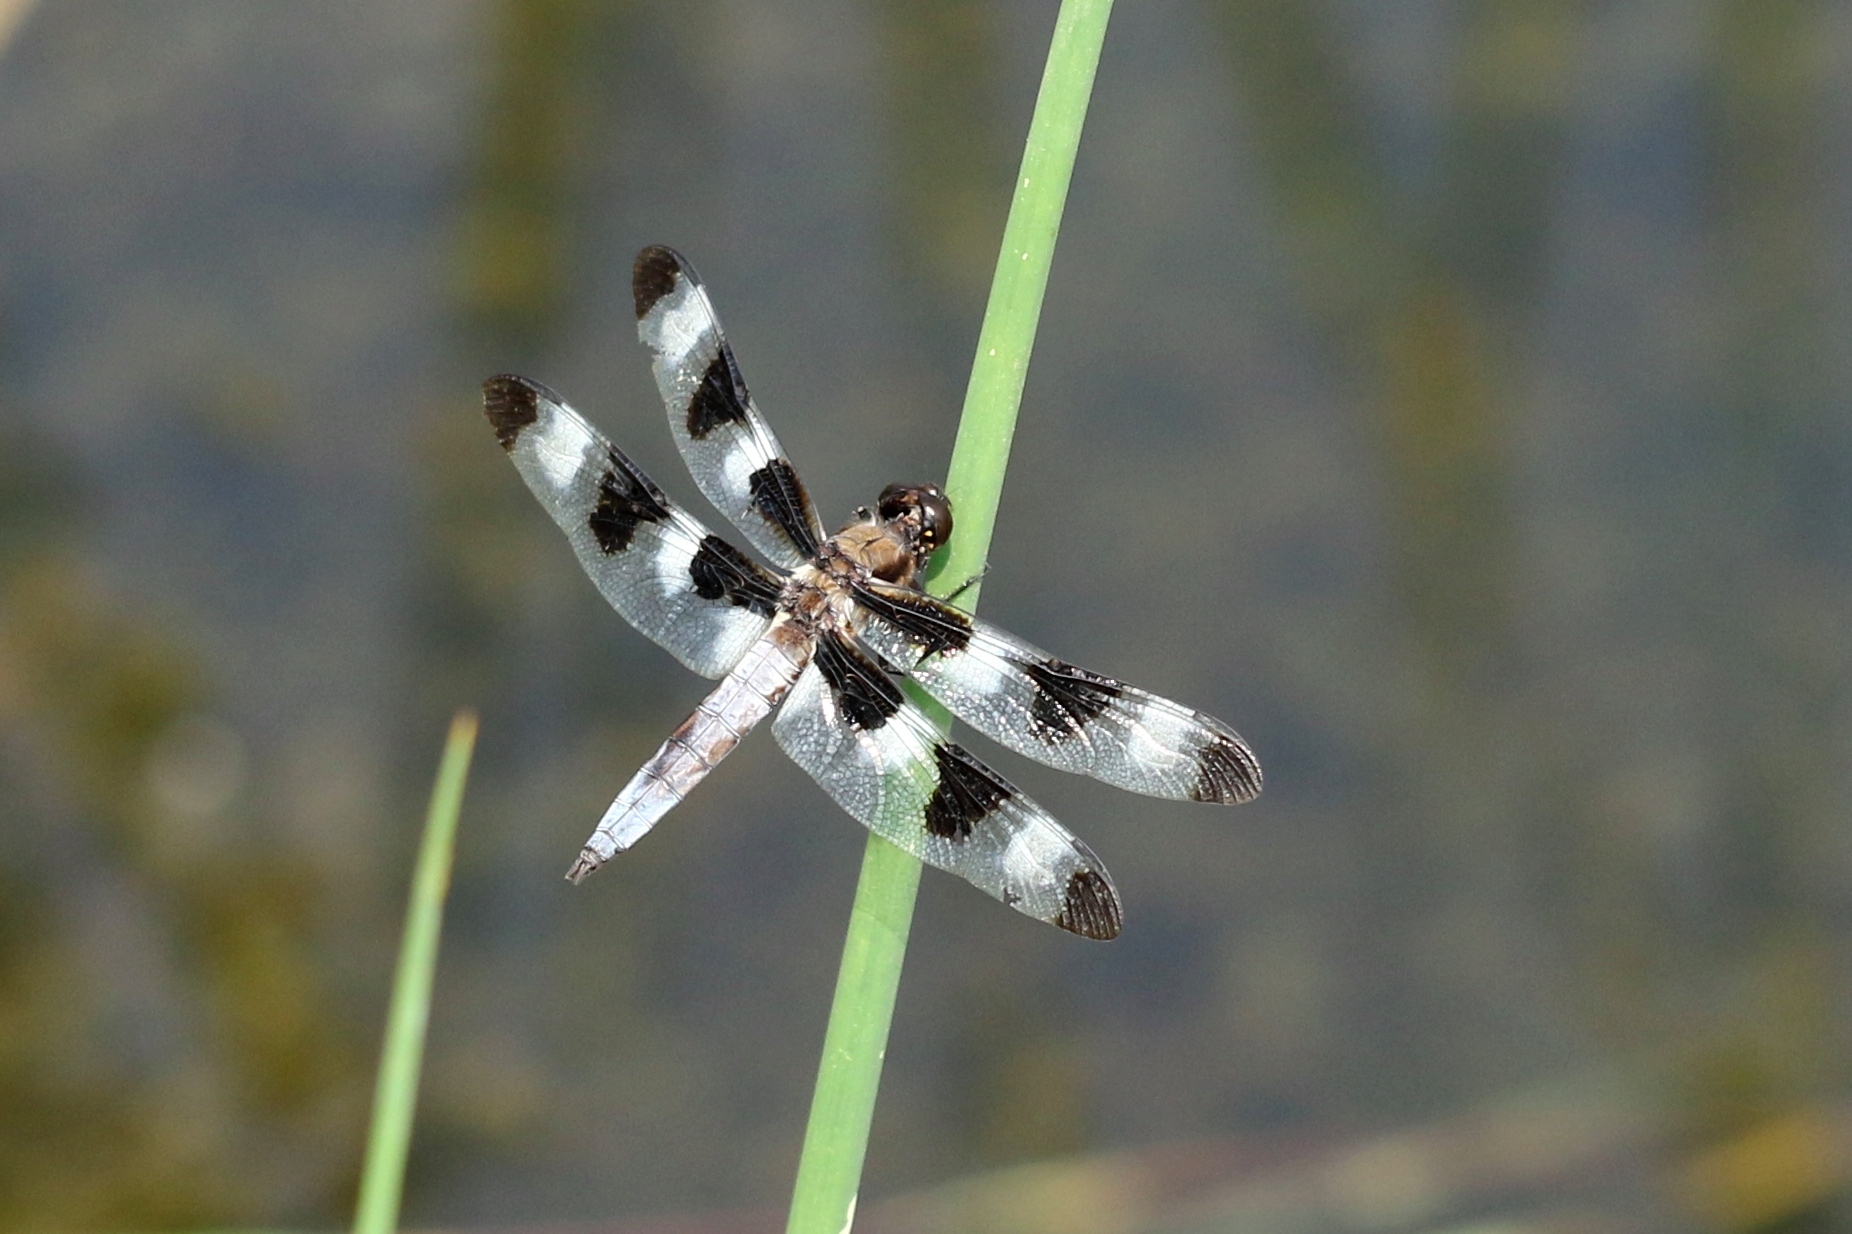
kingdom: Animalia
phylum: Arthropoda
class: Insecta
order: Odonata
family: Libellulidae
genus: Libellula
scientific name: Libellula pulchella
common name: Twelve-spotted skimmer
